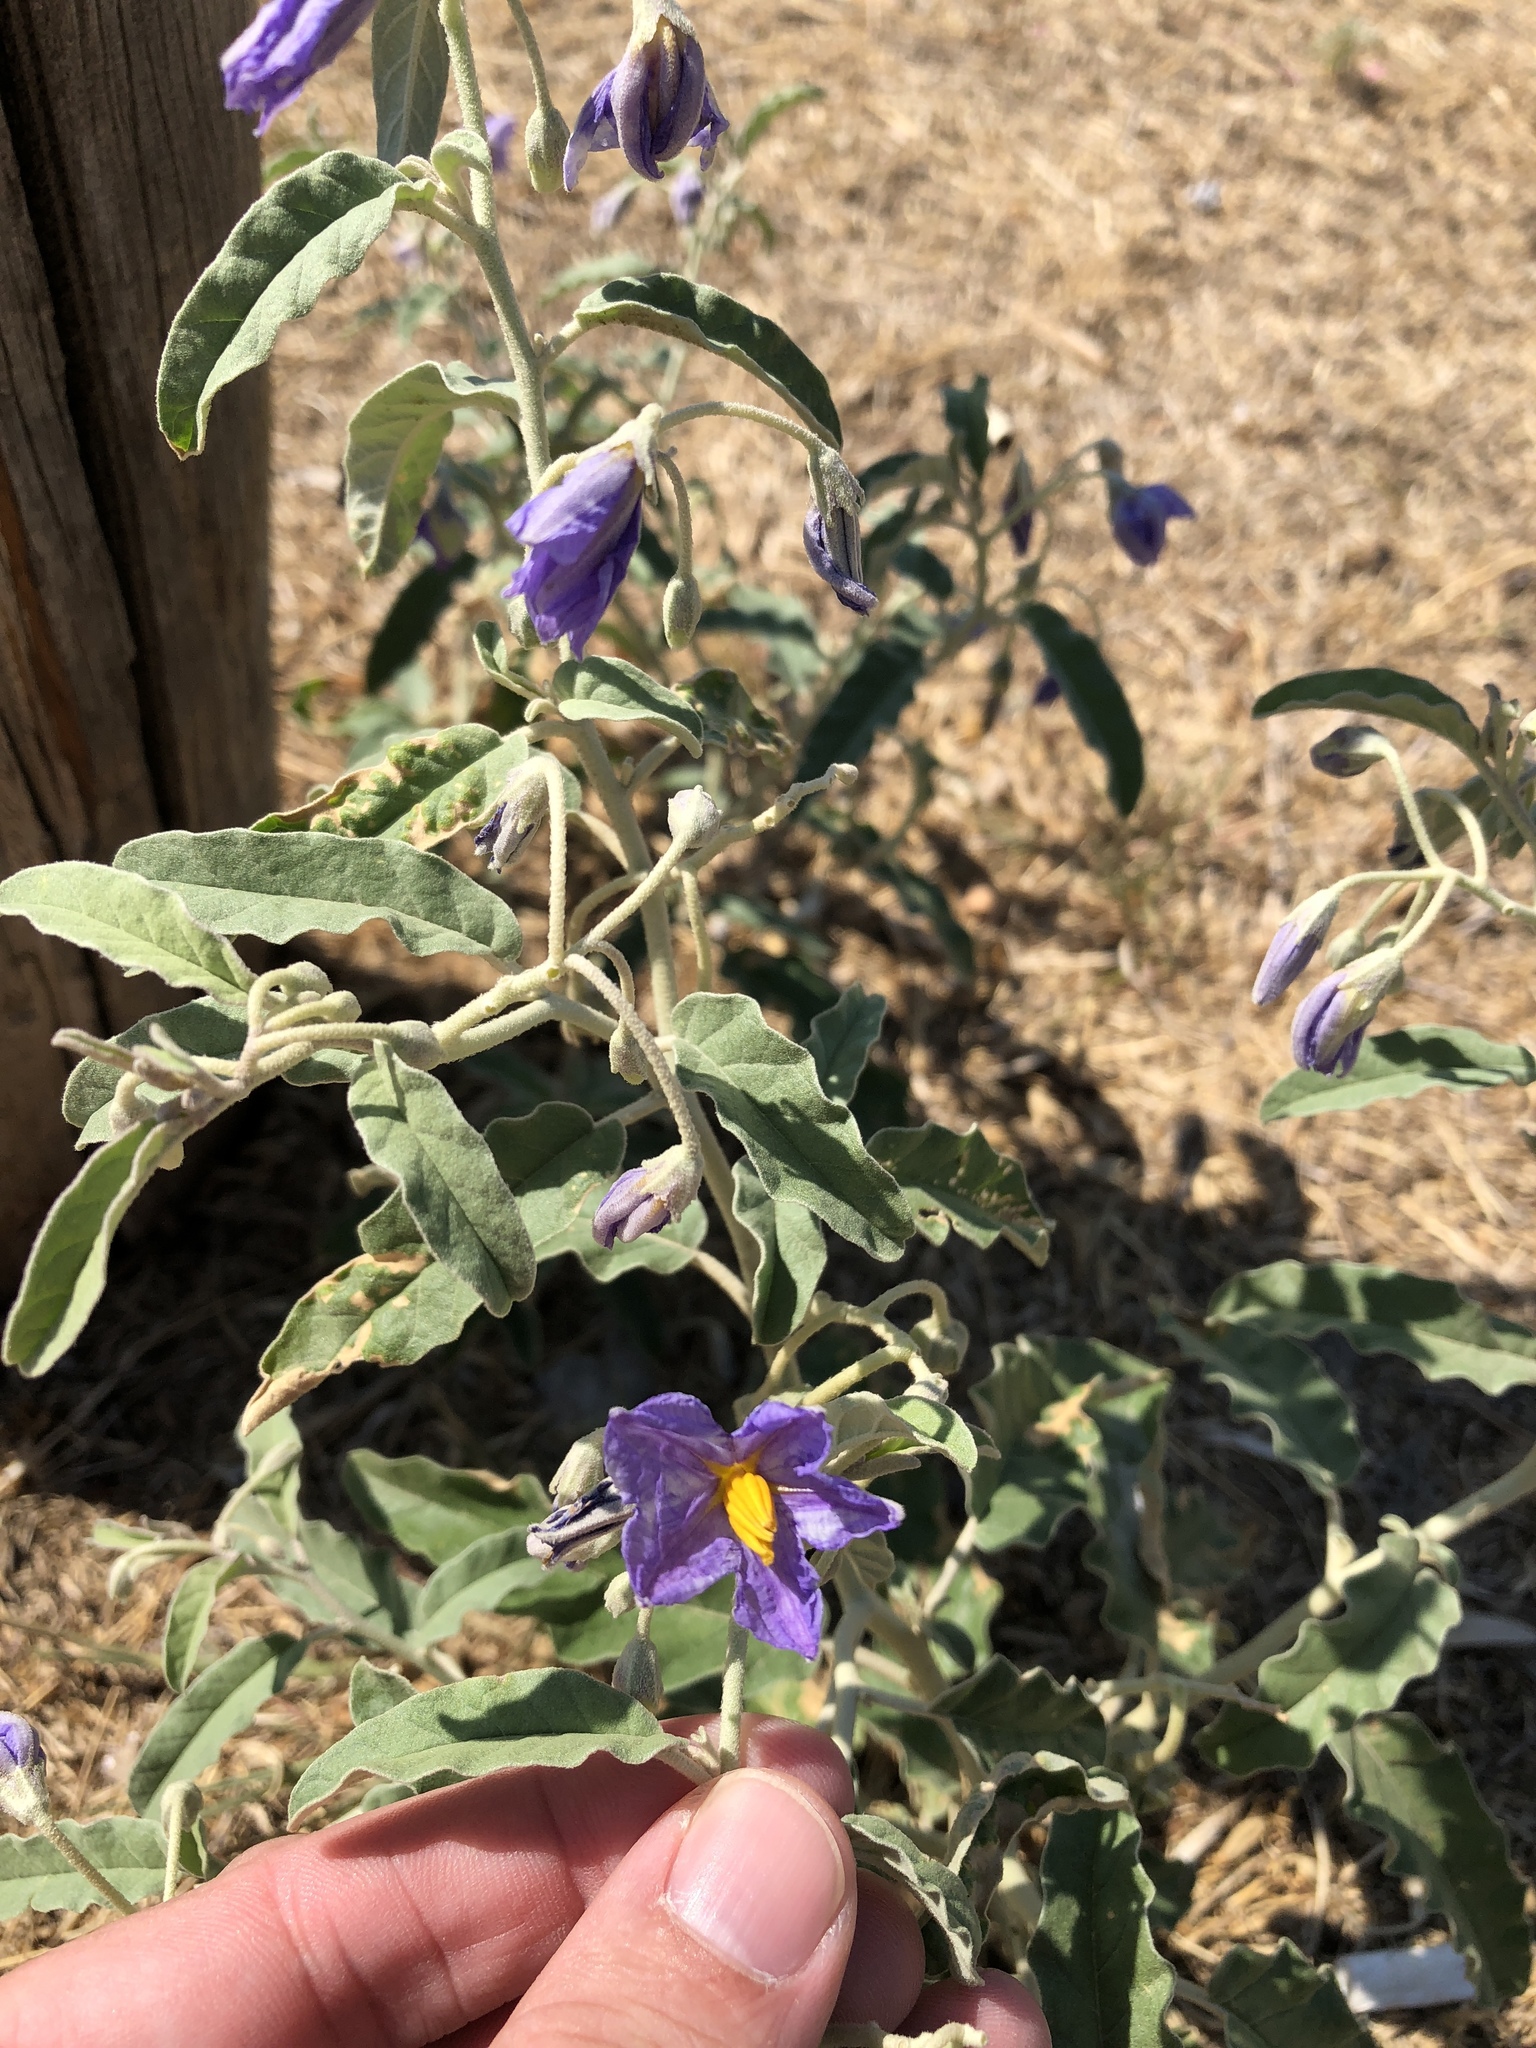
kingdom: Plantae
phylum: Tracheophyta
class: Magnoliopsida
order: Solanales
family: Solanaceae
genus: Solanum
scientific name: Solanum elaeagnifolium
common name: Silverleaf nightshade
